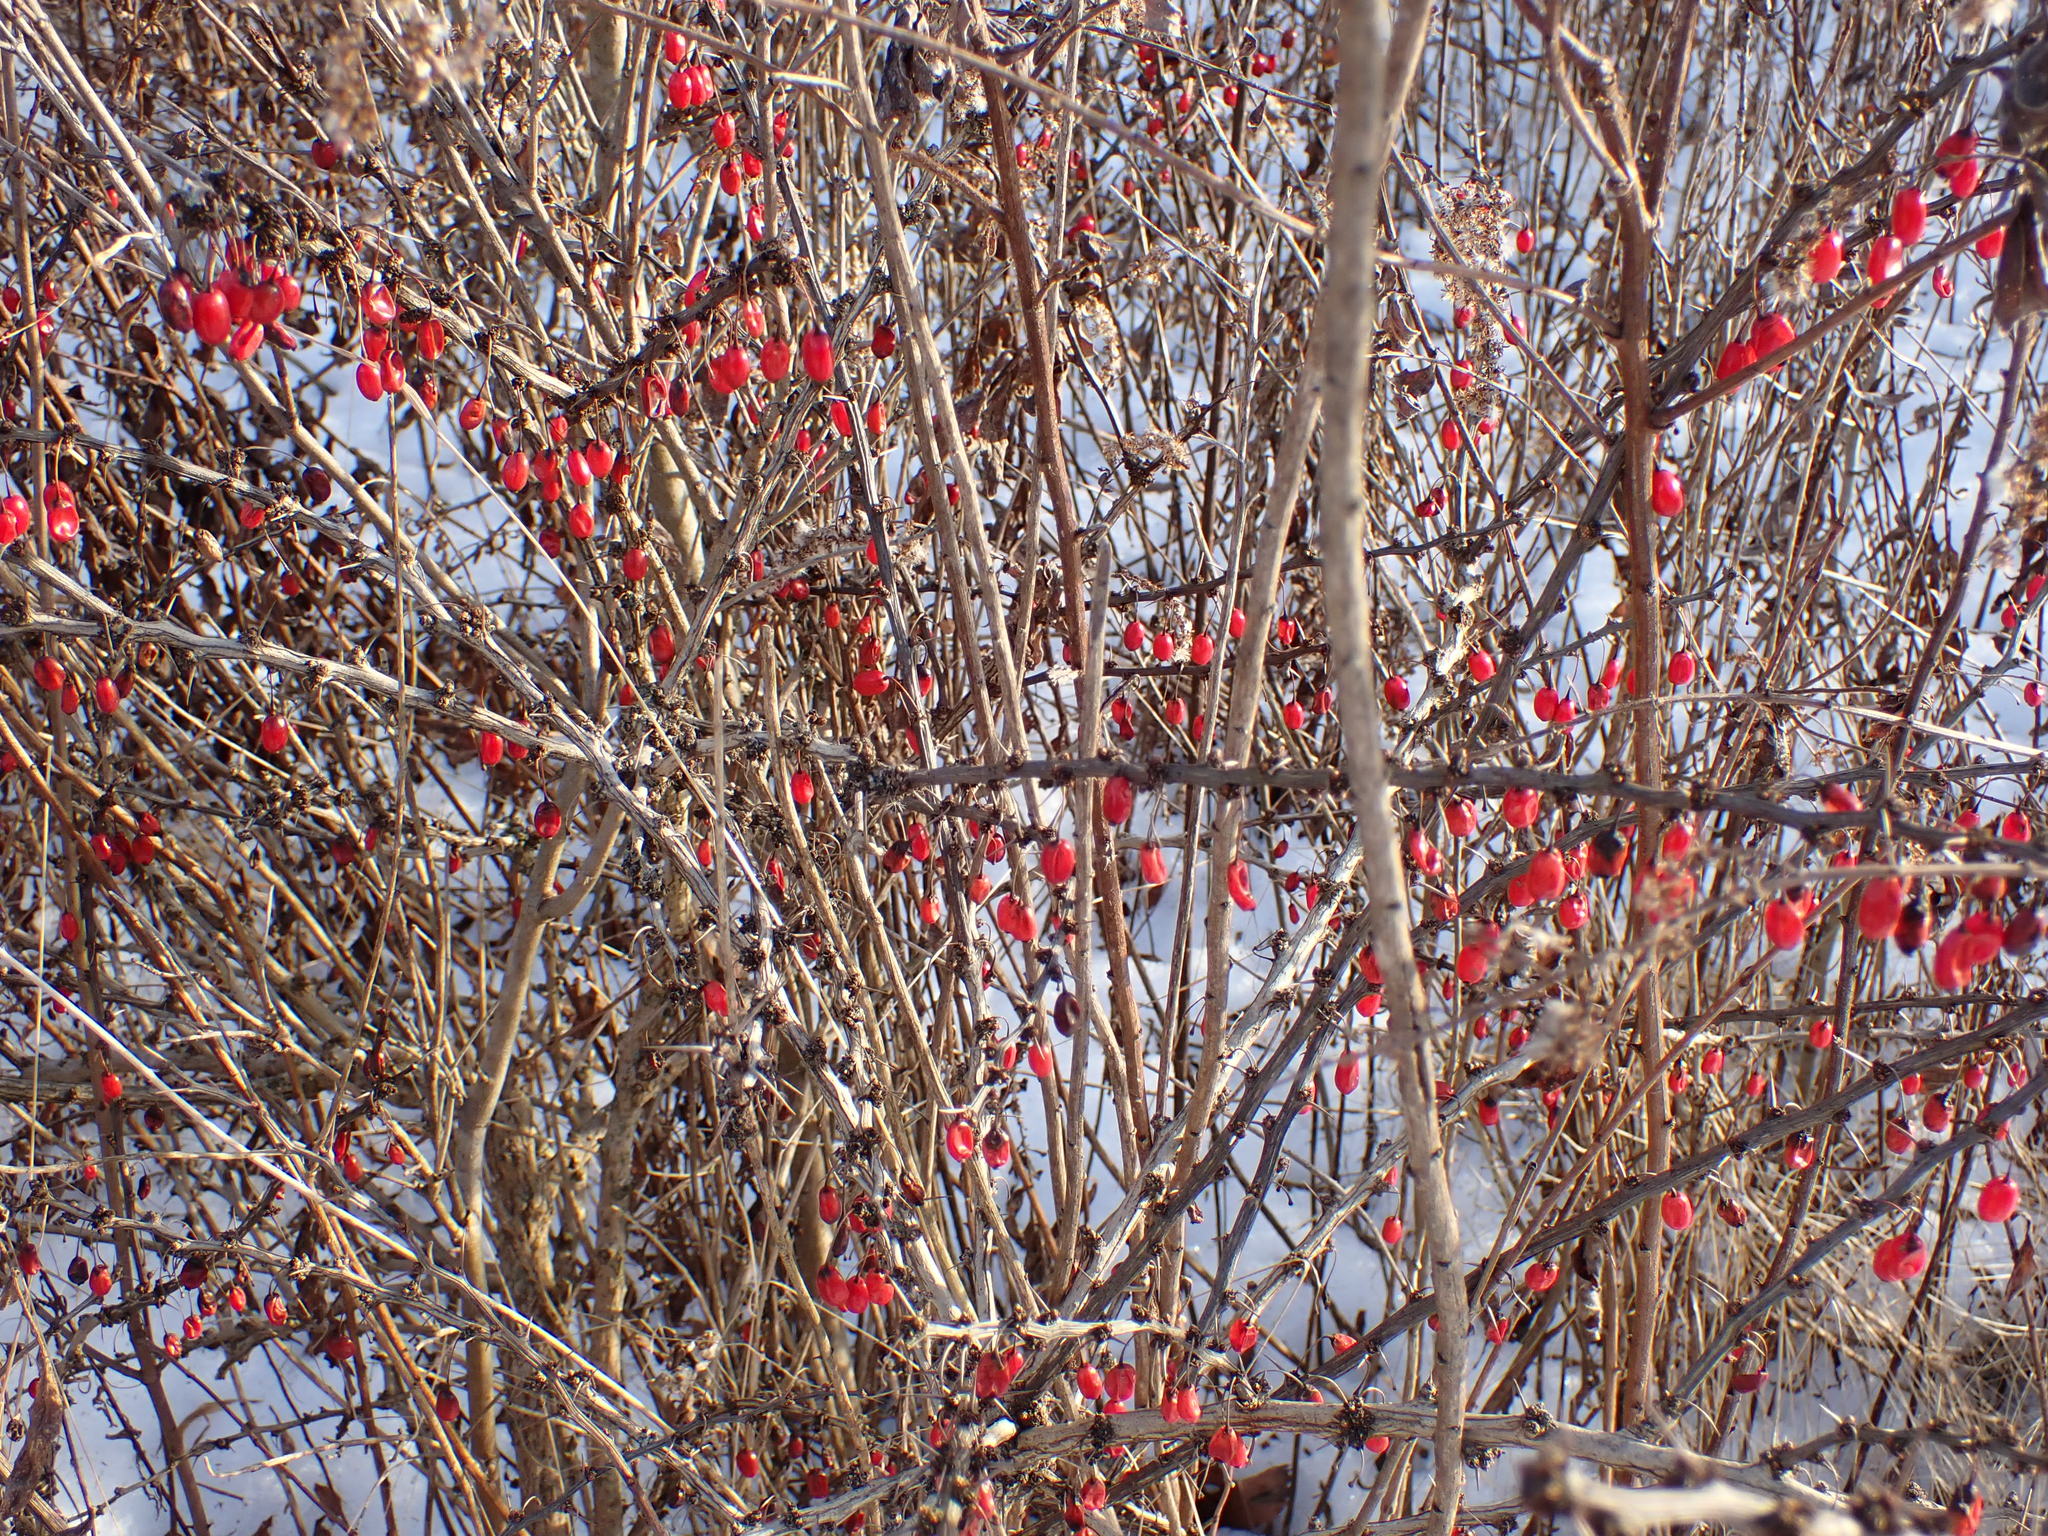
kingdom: Plantae
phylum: Tracheophyta
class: Magnoliopsida
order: Ranunculales
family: Berberidaceae
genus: Berberis
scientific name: Berberis thunbergii
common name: Japanese barberry
